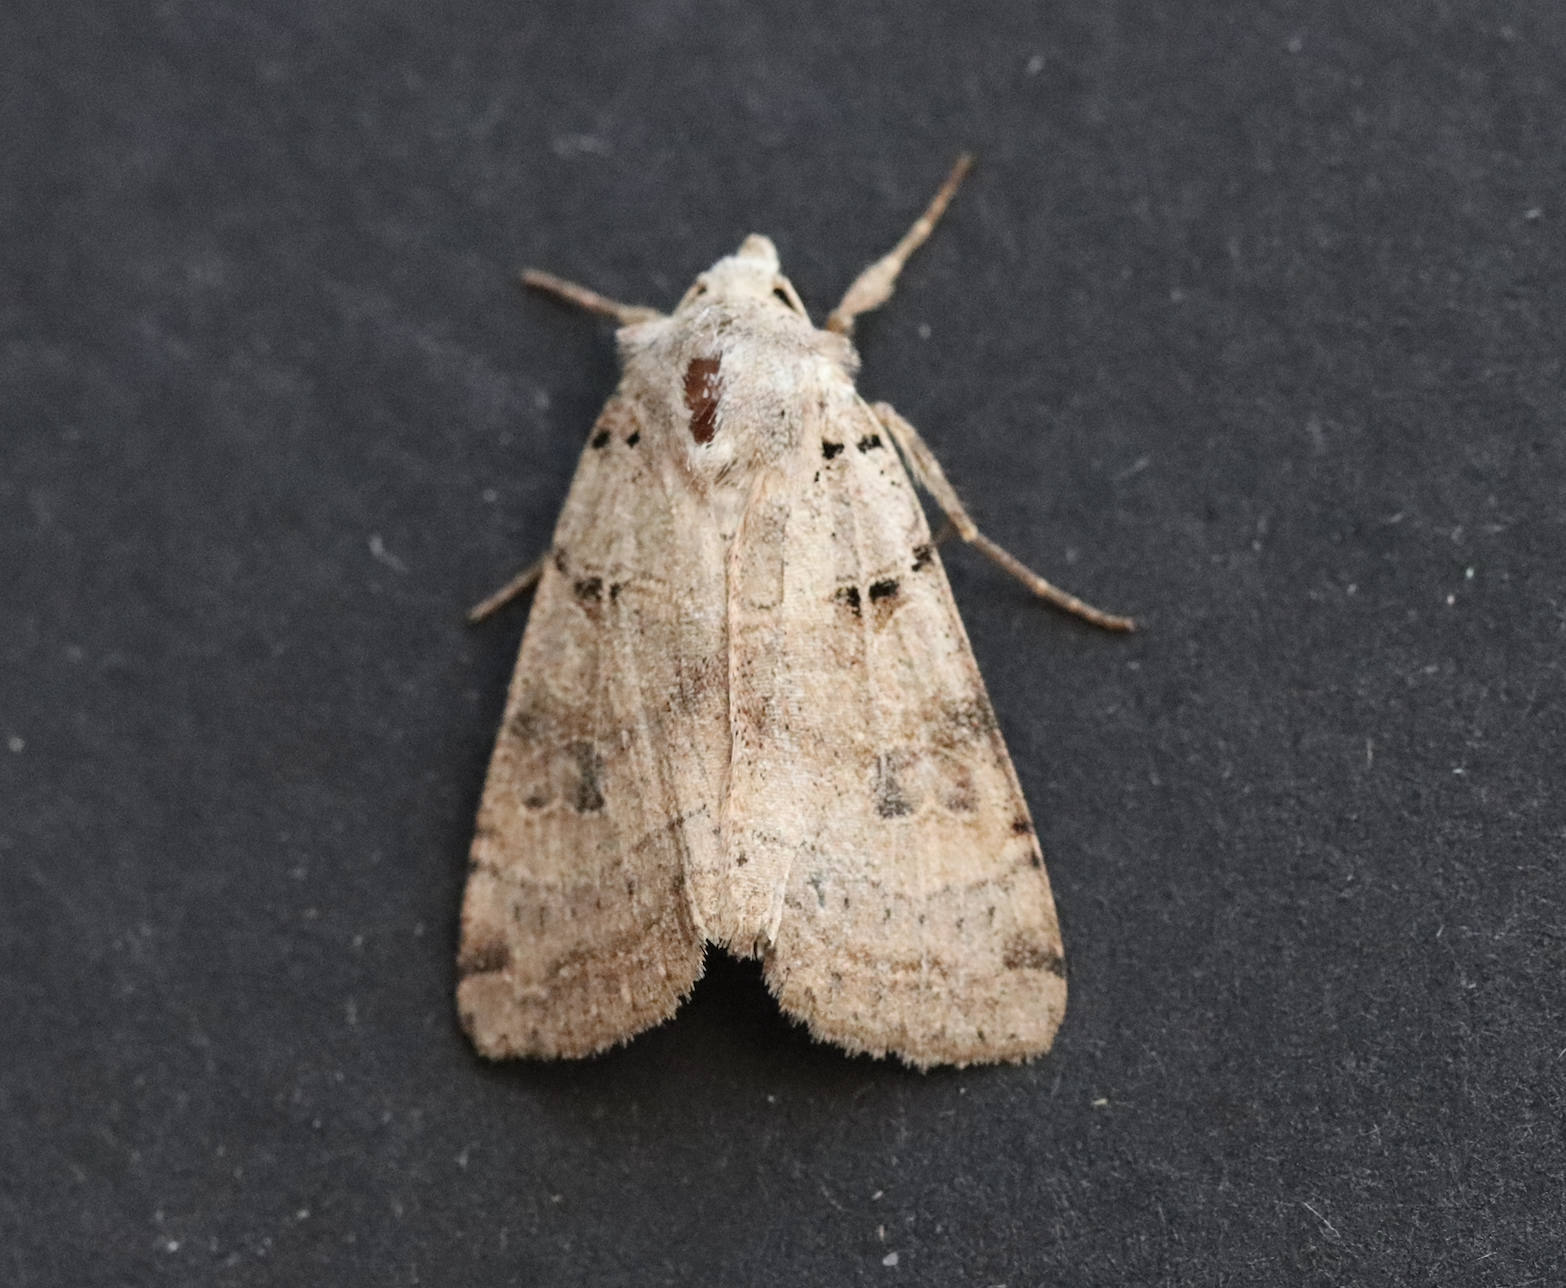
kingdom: Animalia
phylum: Arthropoda
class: Insecta
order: Lepidoptera
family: Noctuidae
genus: Eugnorisma
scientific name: Eugnorisma depuncta
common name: Plain clay
